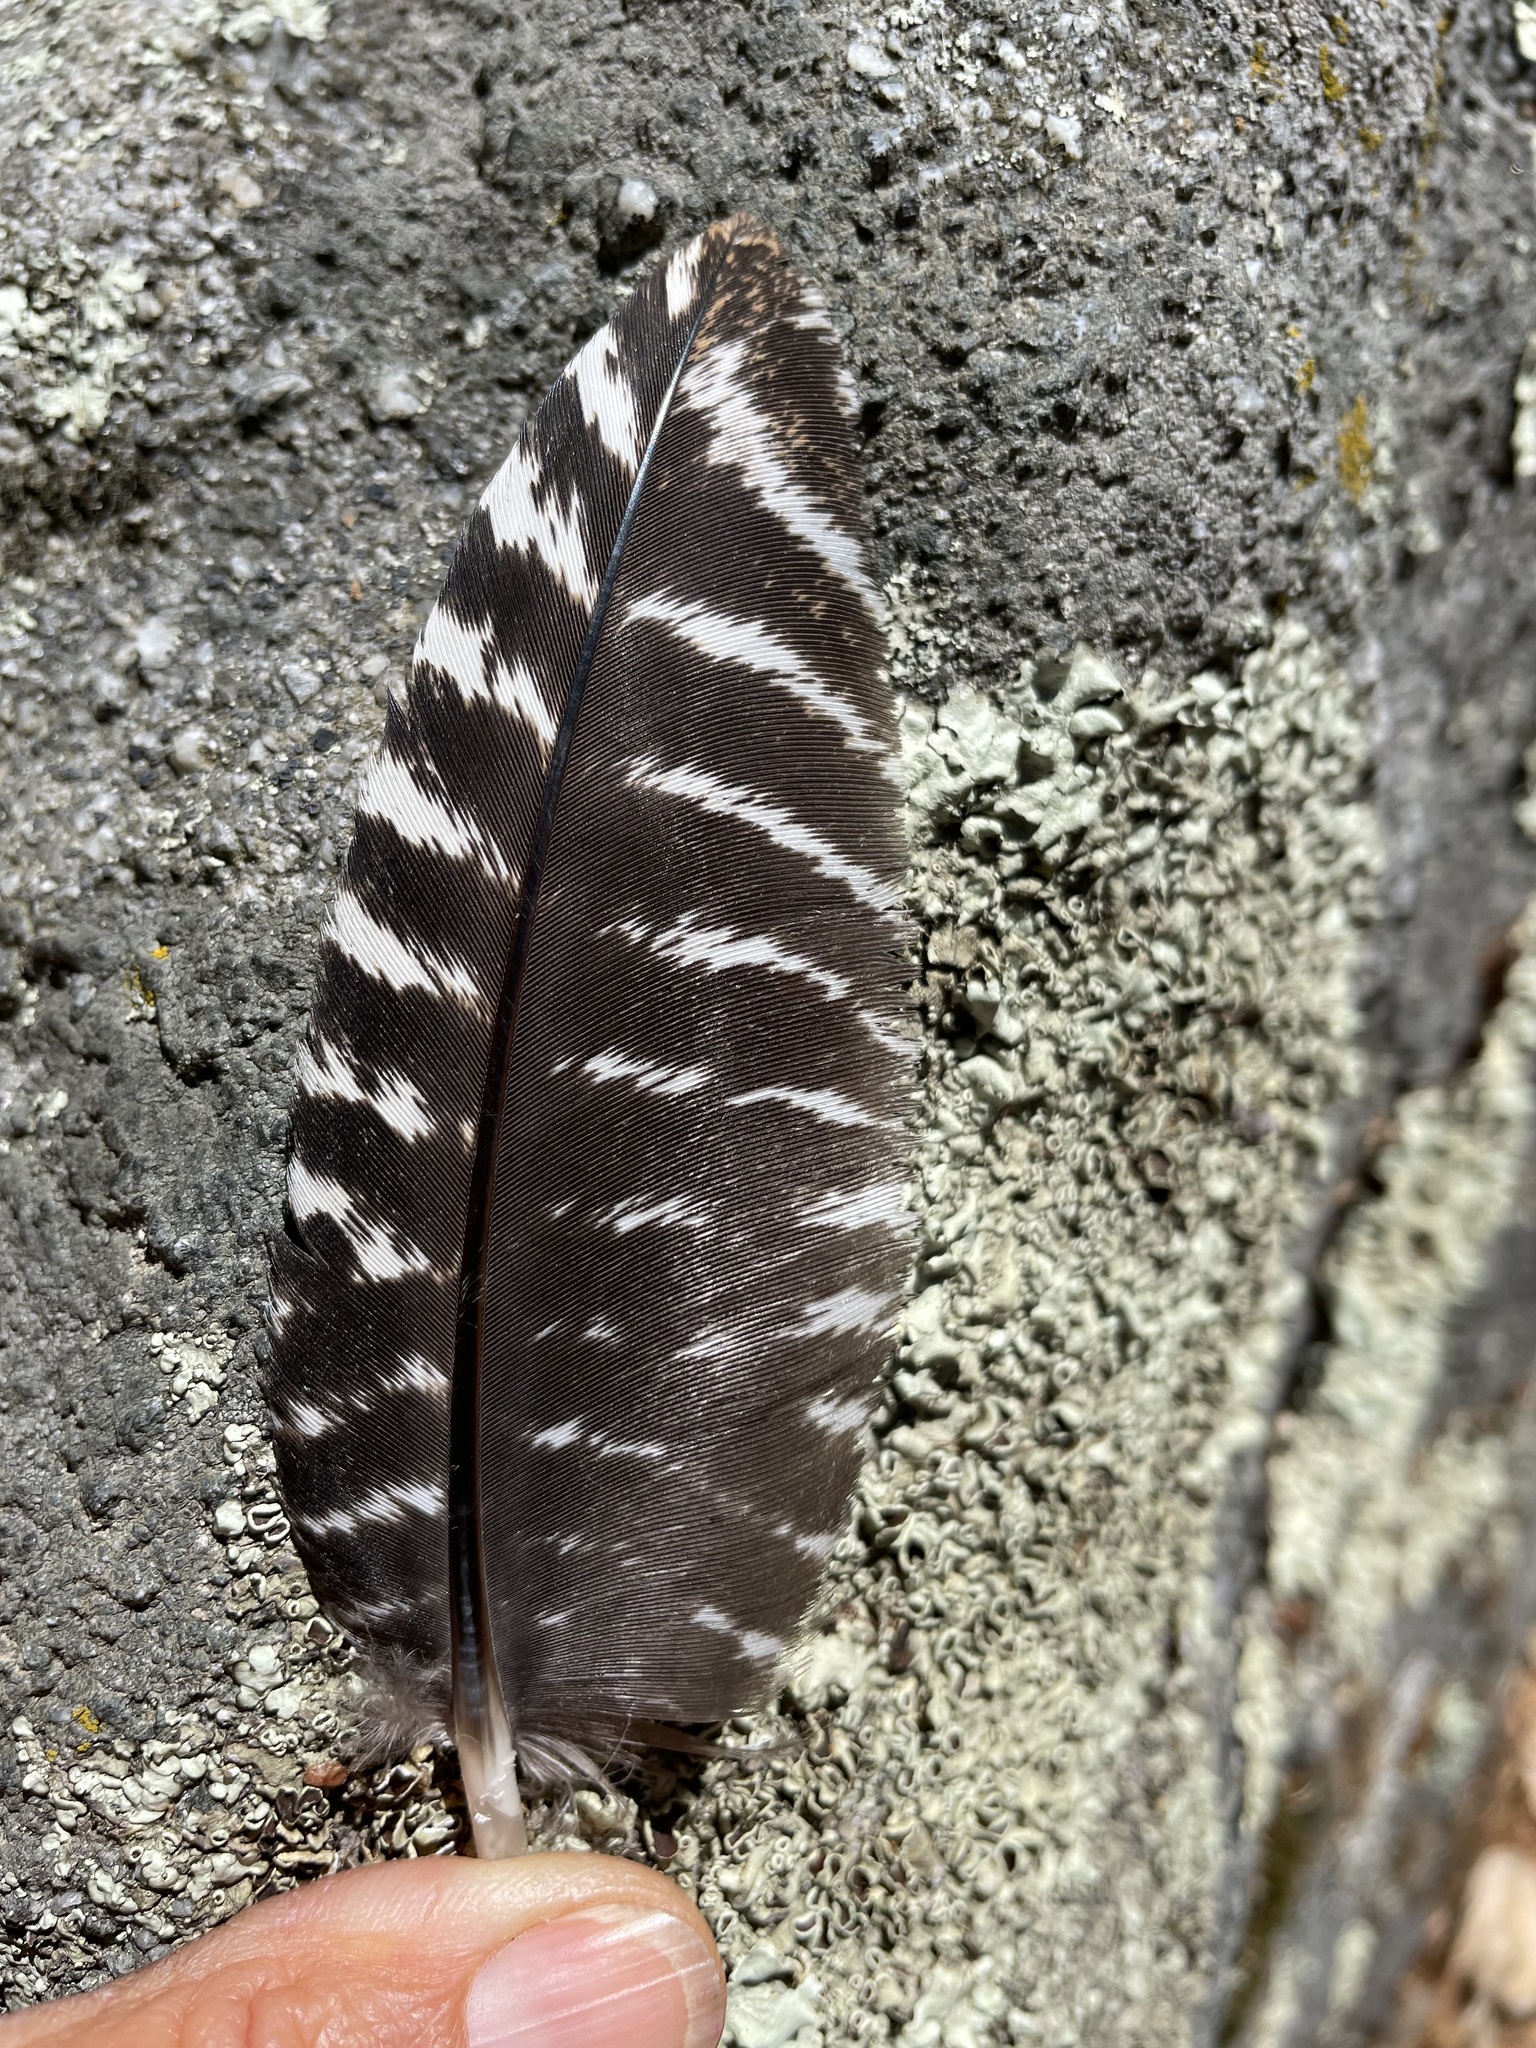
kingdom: Animalia
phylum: Chordata
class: Aves
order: Galliformes
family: Phasianidae
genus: Meleagris
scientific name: Meleagris gallopavo
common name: Wild turkey
